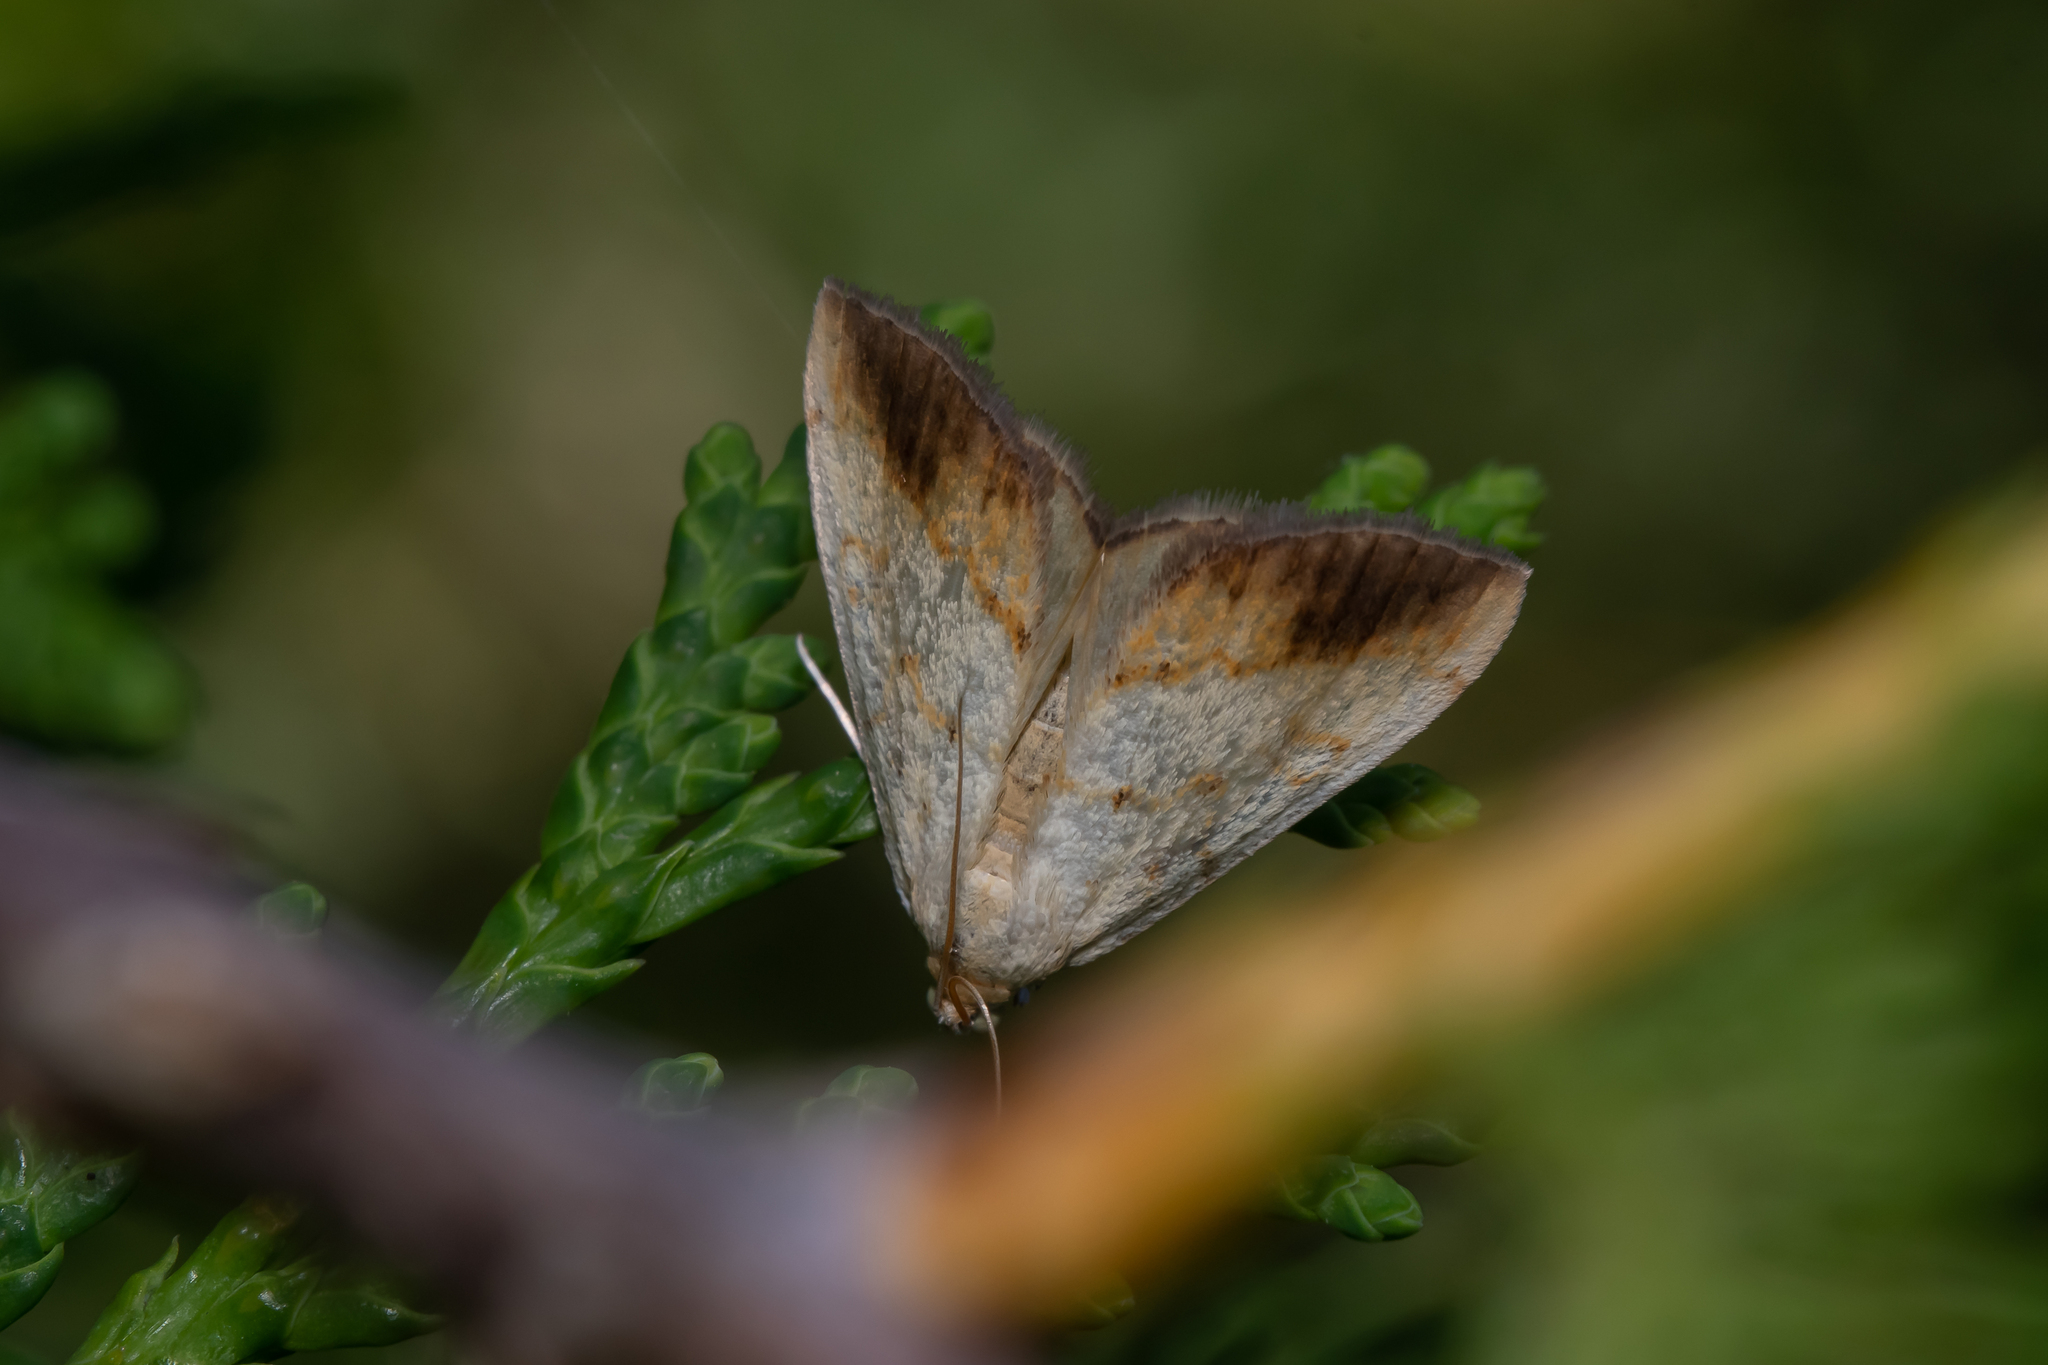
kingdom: Animalia
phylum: Arthropoda
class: Insecta
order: Lepidoptera
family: Crambidae
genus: Evergestis
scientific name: Evergestis extimalis
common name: Marbled yellow pearl
